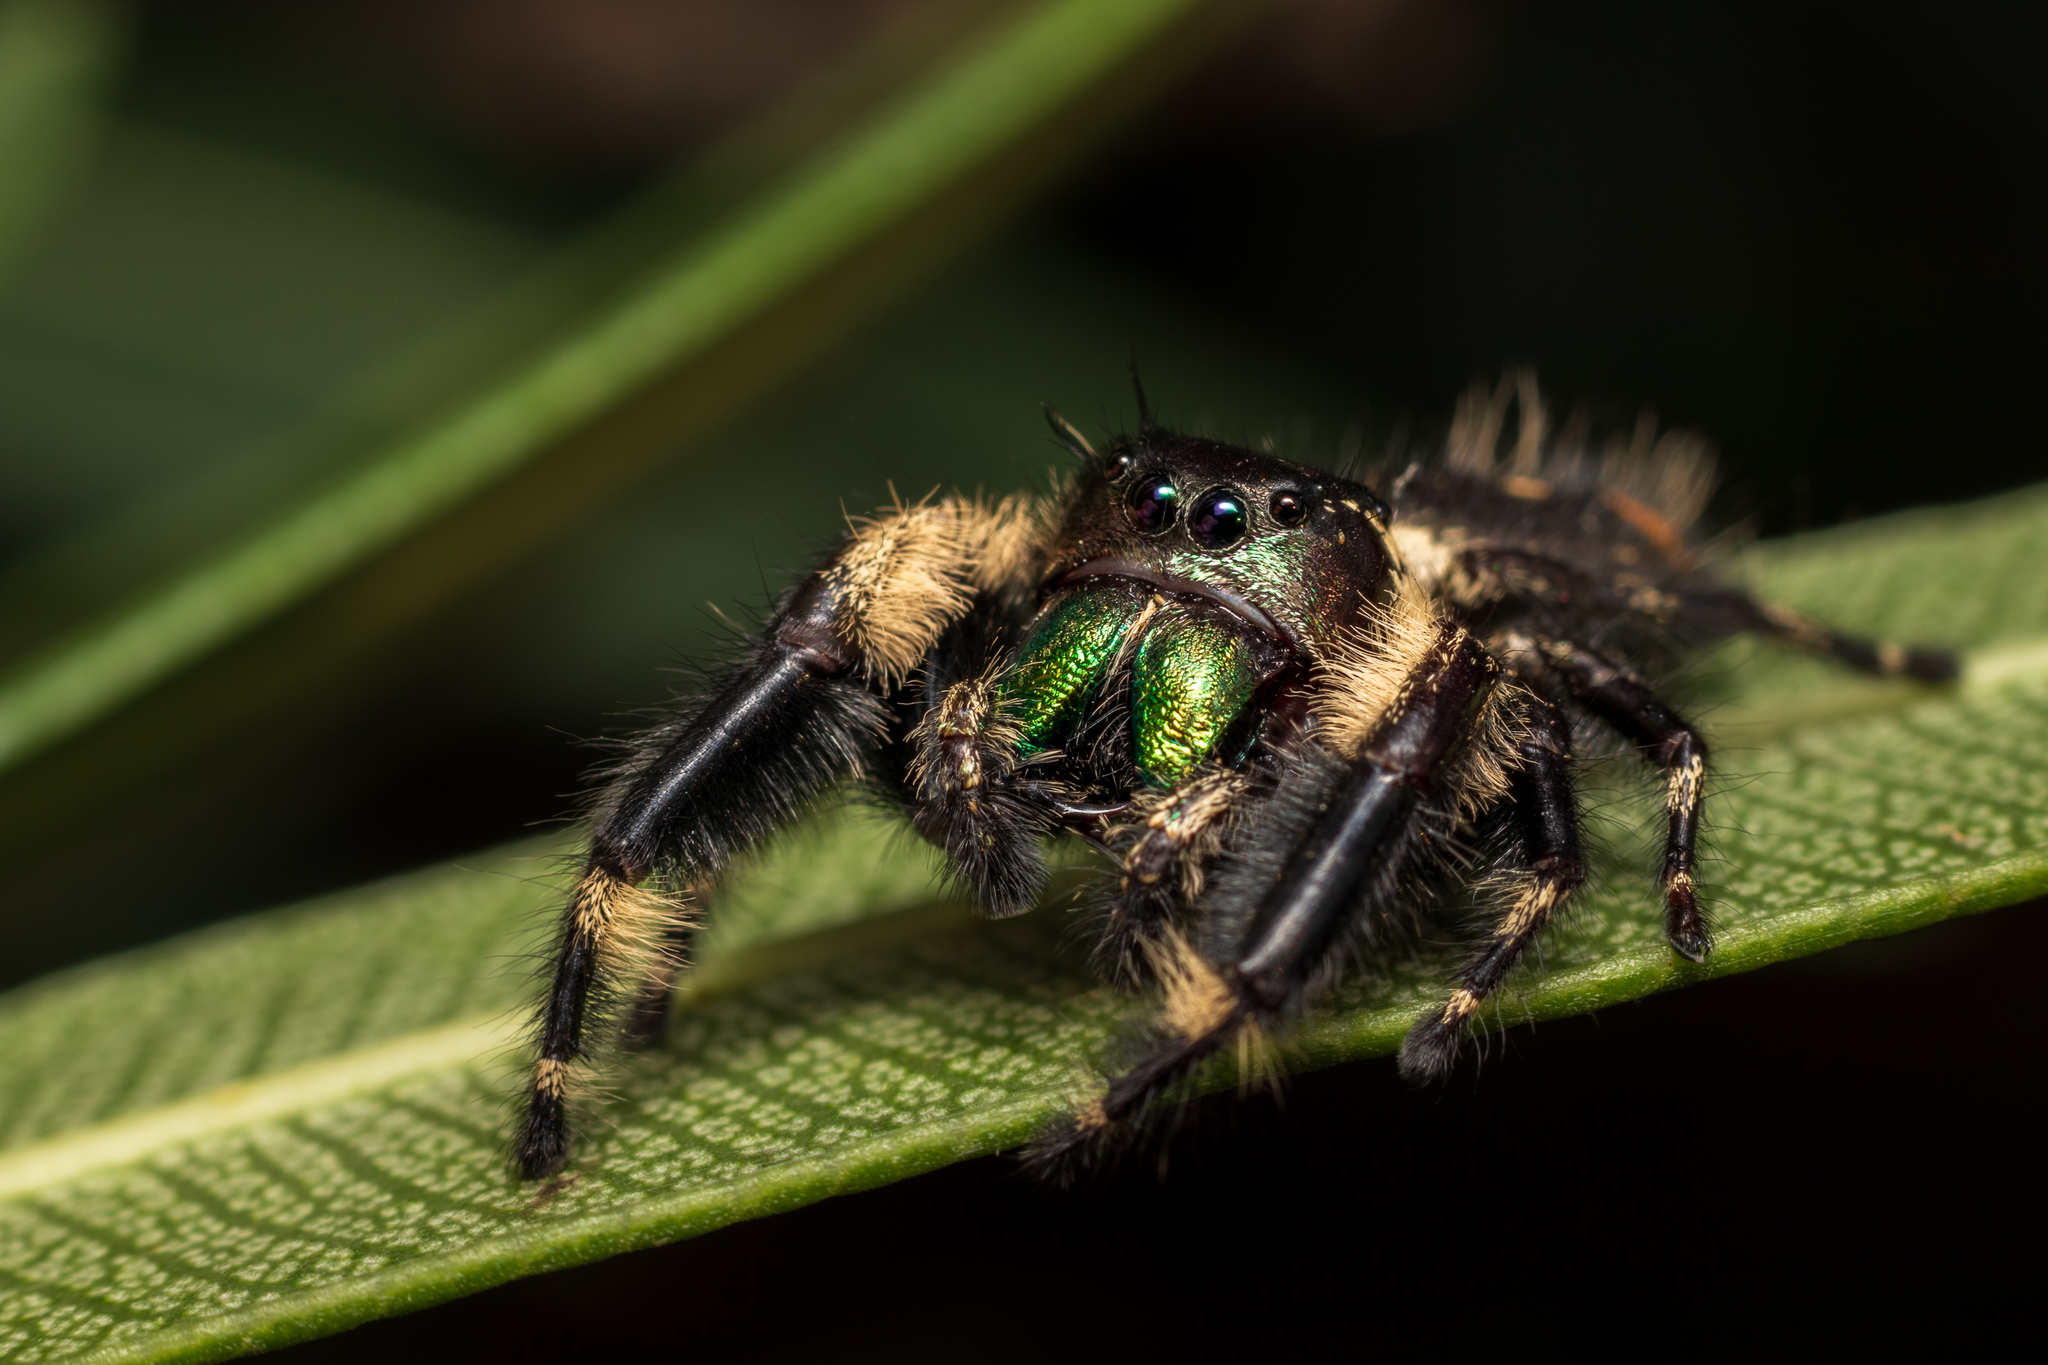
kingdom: Animalia
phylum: Arthropoda
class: Arachnida
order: Araneae
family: Salticidae
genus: Phidippus
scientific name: Phidippus otiosus
